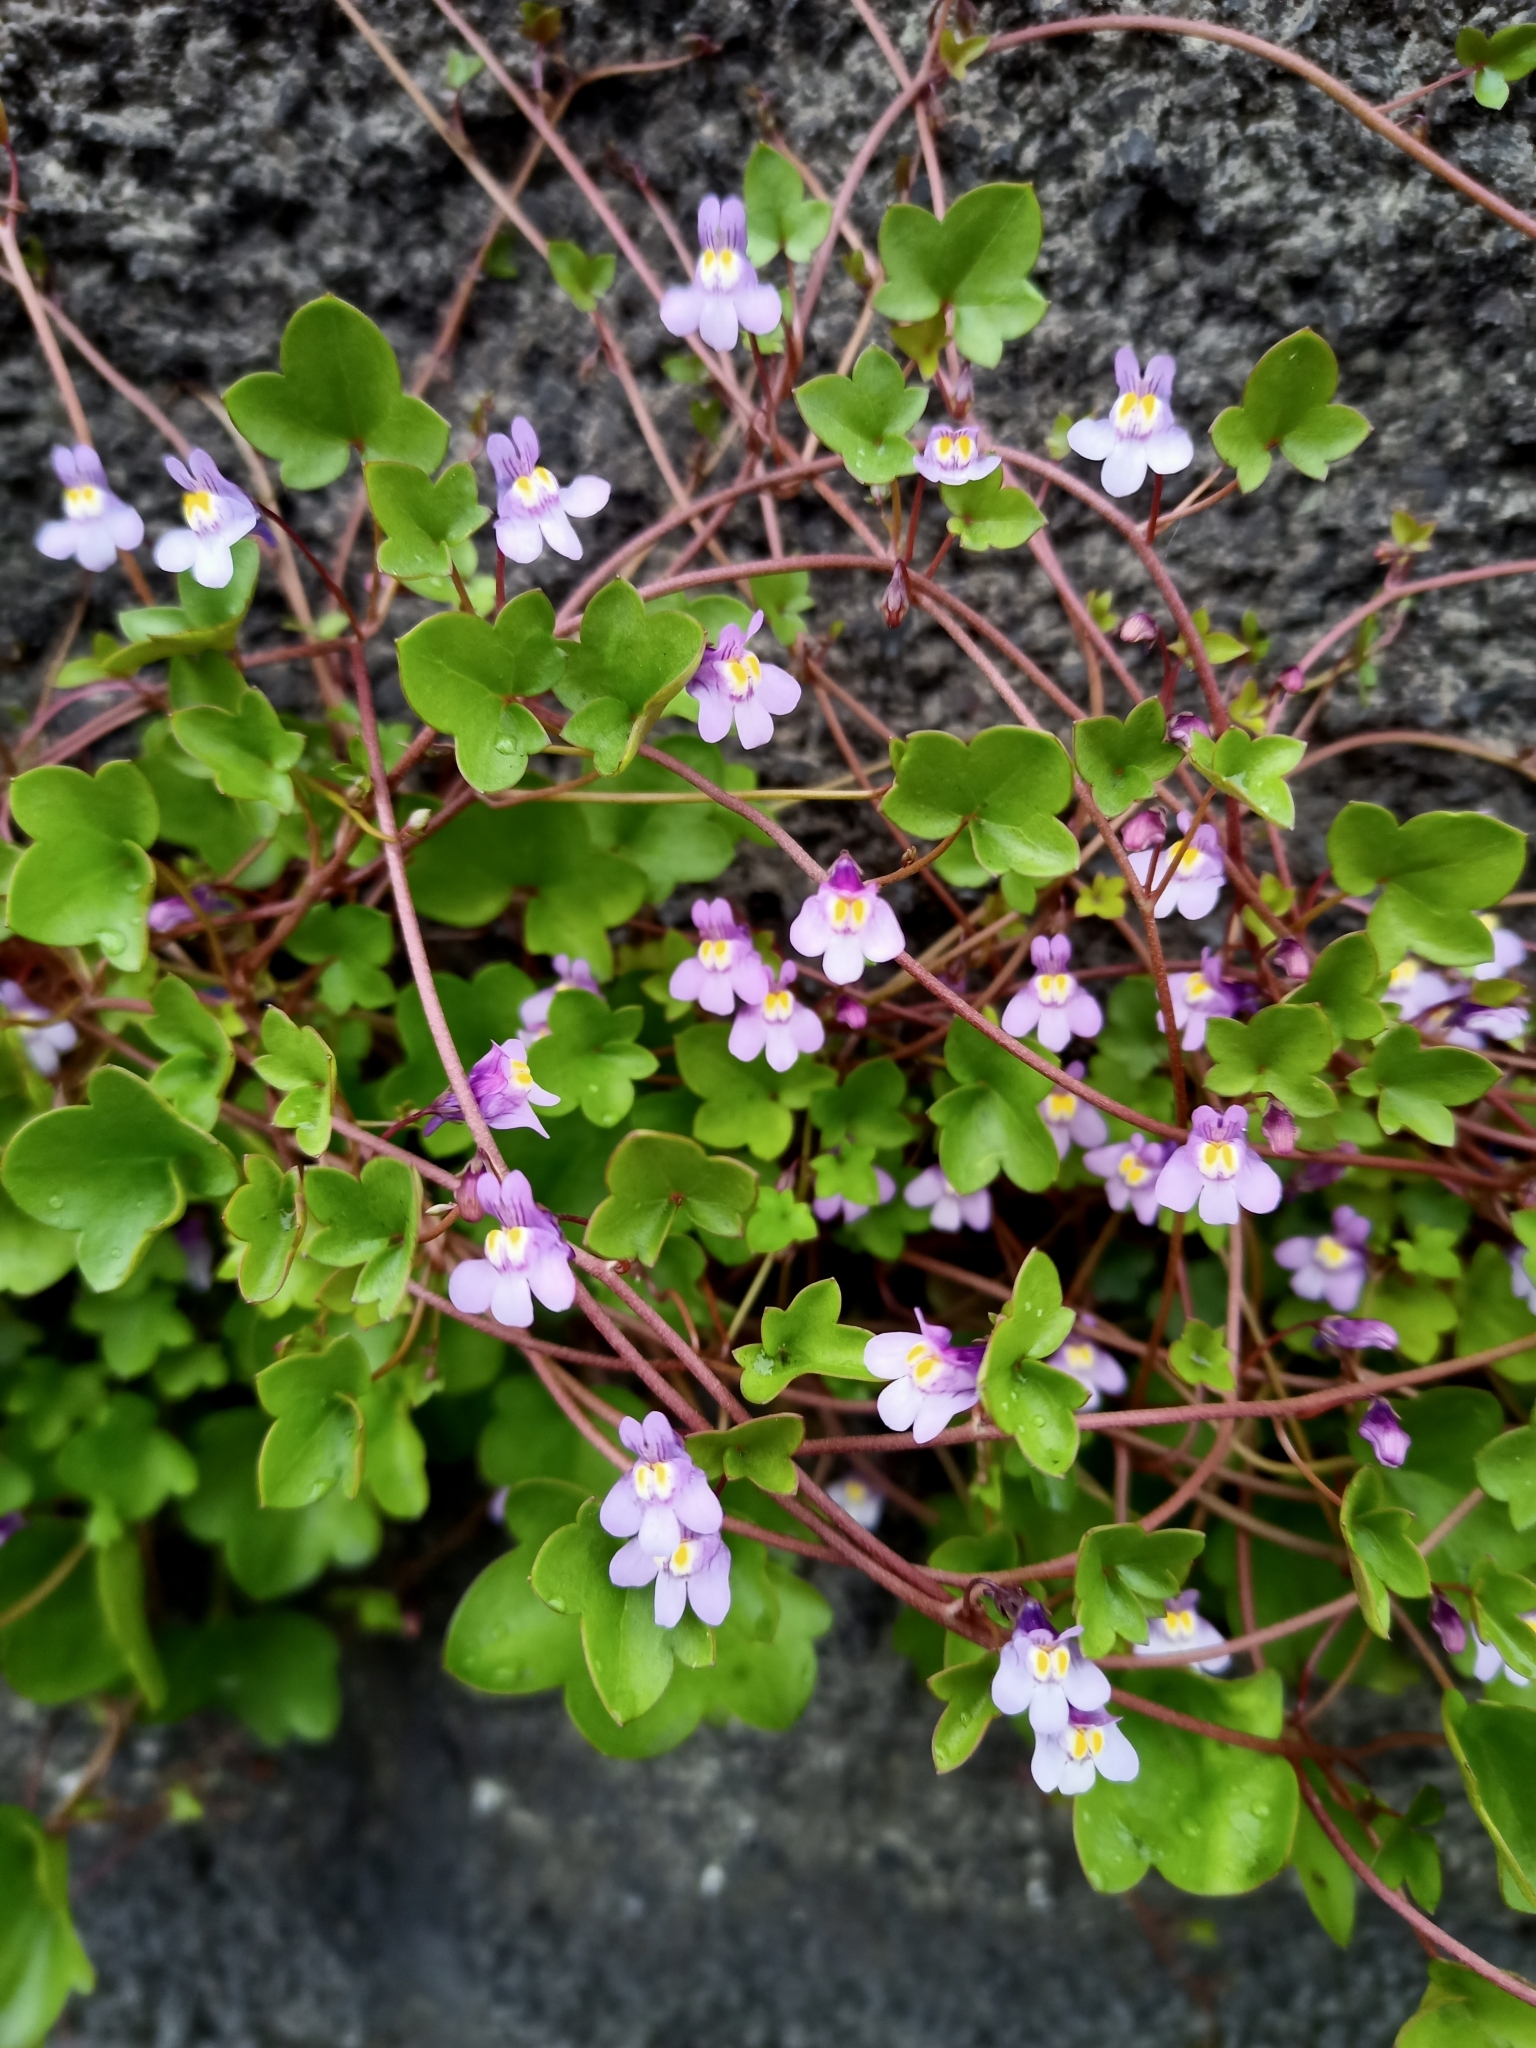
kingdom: Plantae
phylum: Tracheophyta
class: Magnoliopsida
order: Lamiales
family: Plantaginaceae
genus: Cymbalaria
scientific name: Cymbalaria muralis
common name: Ivy-leaved toadflax
